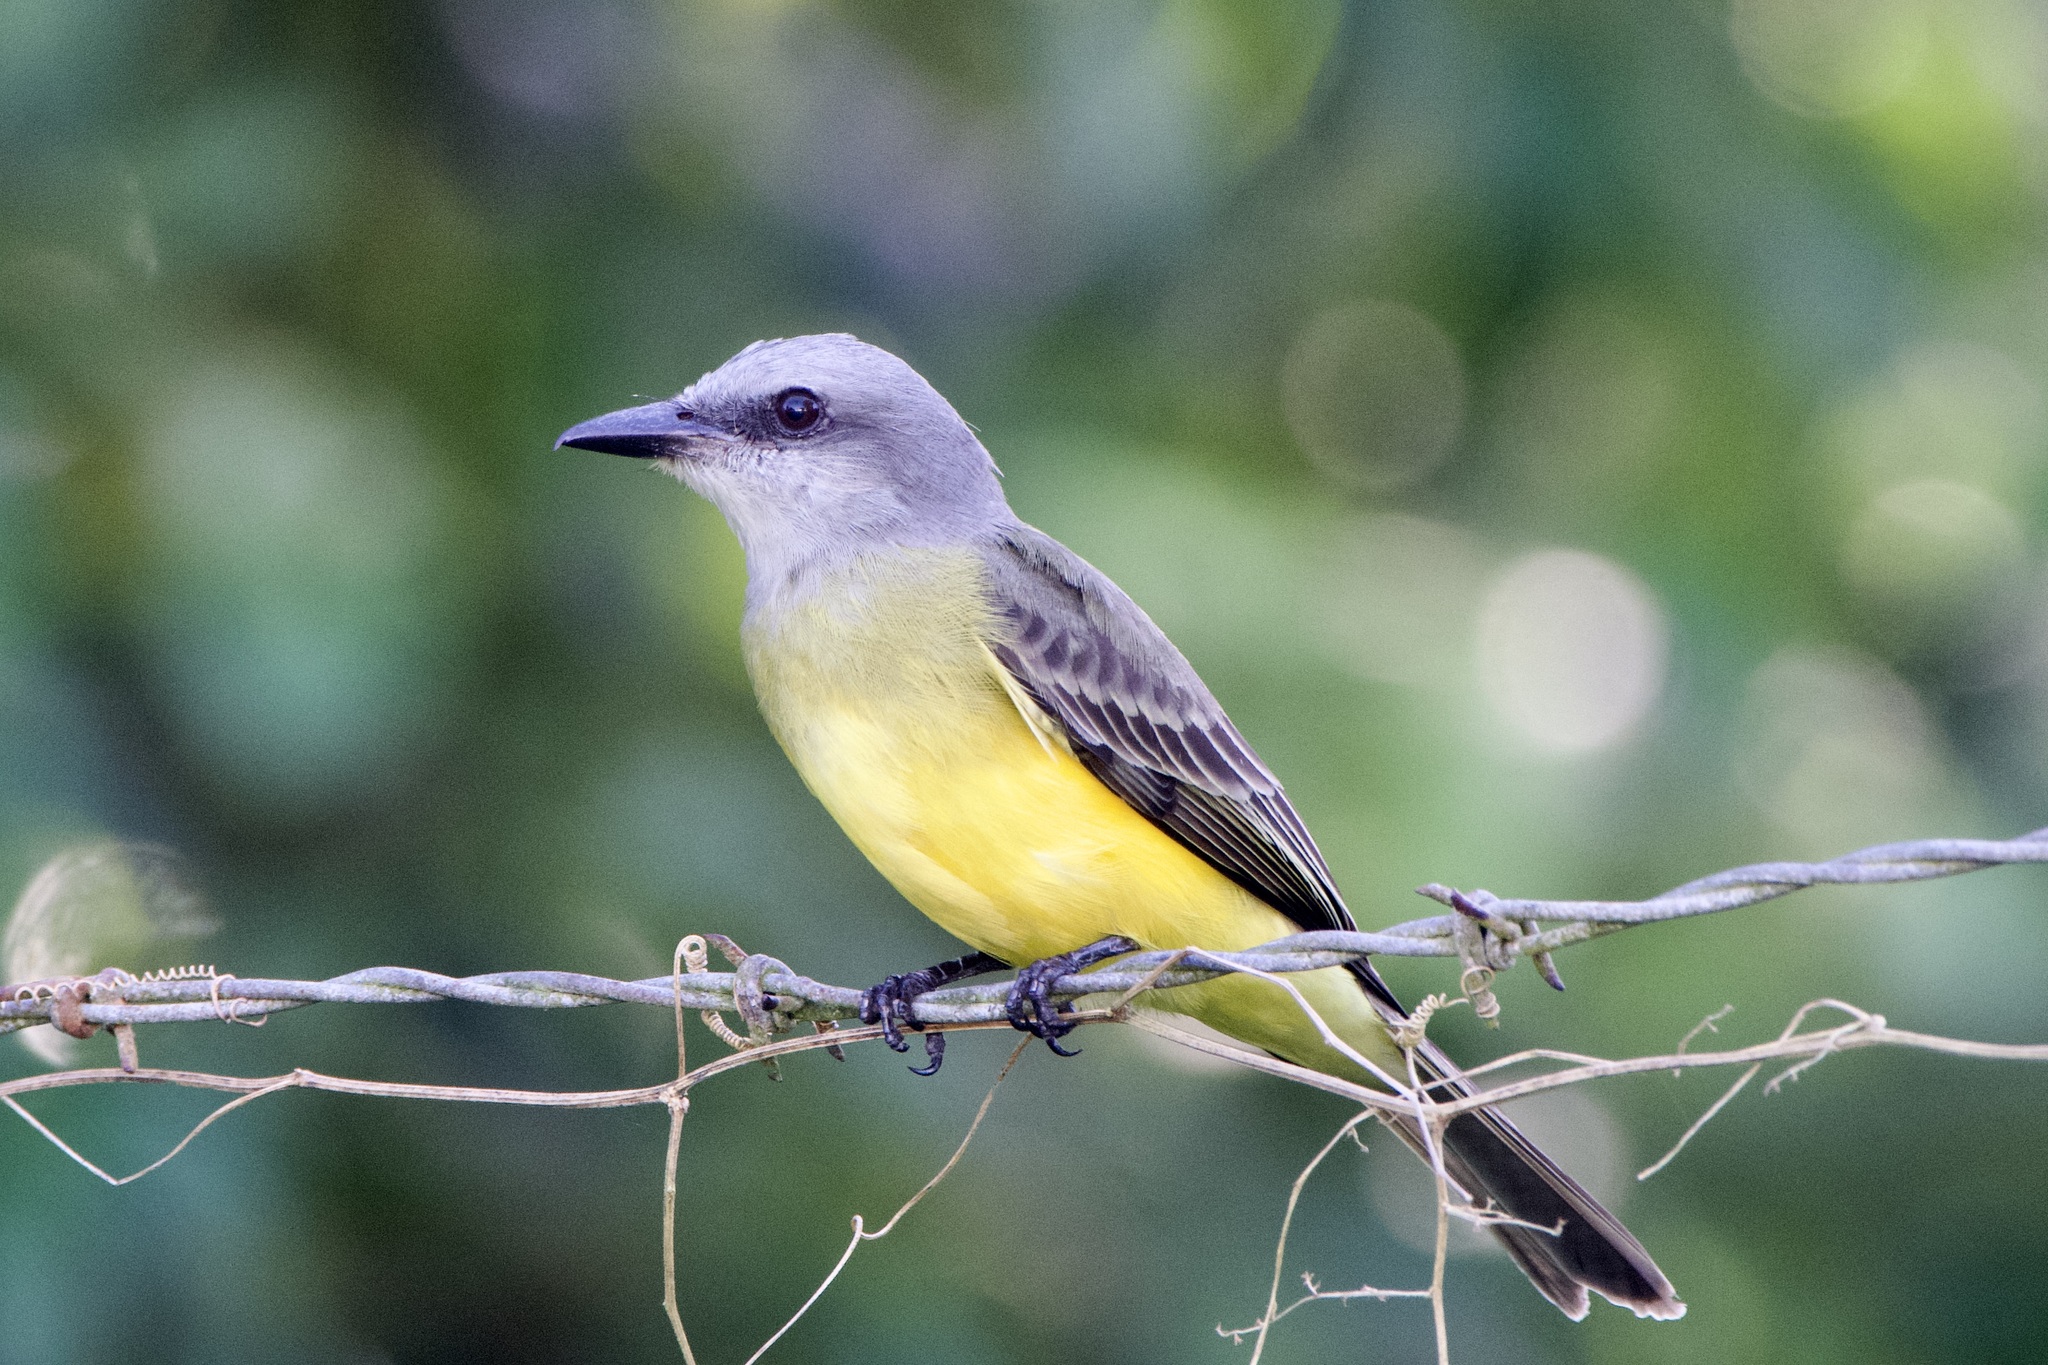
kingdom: Animalia
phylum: Chordata
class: Aves
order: Passeriformes
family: Tyrannidae
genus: Tyrannus
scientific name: Tyrannus melancholicus
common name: Tropical kingbird
